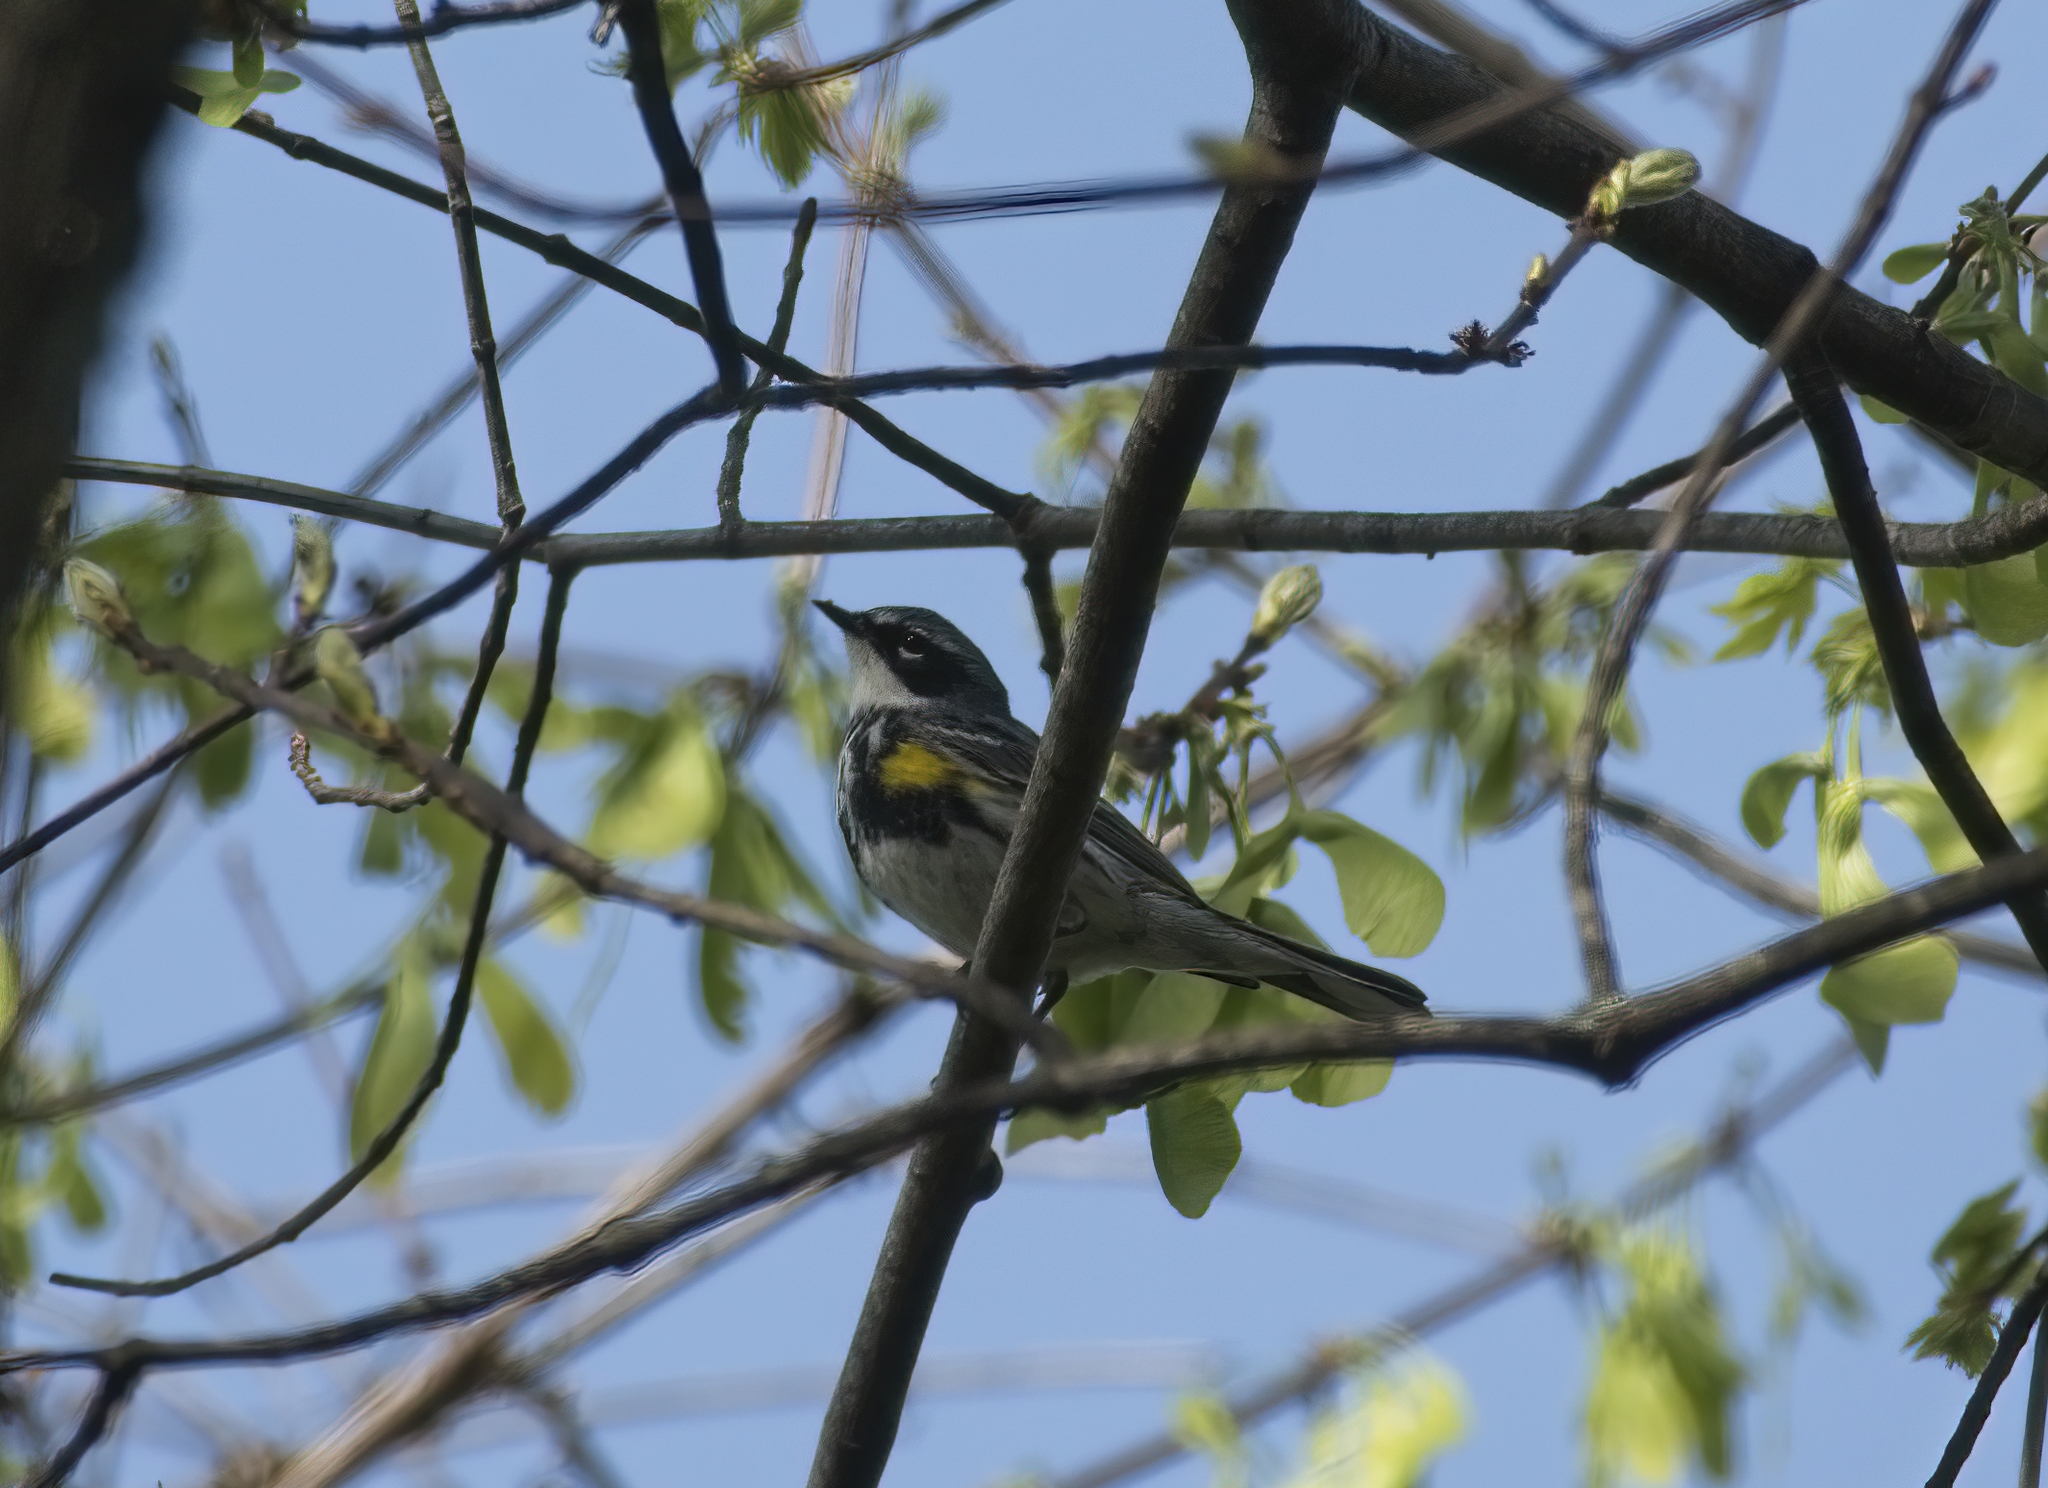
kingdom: Animalia
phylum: Chordata
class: Aves
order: Passeriformes
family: Parulidae
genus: Setophaga
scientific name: Setophaga coronata
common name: Myrtle warbler
